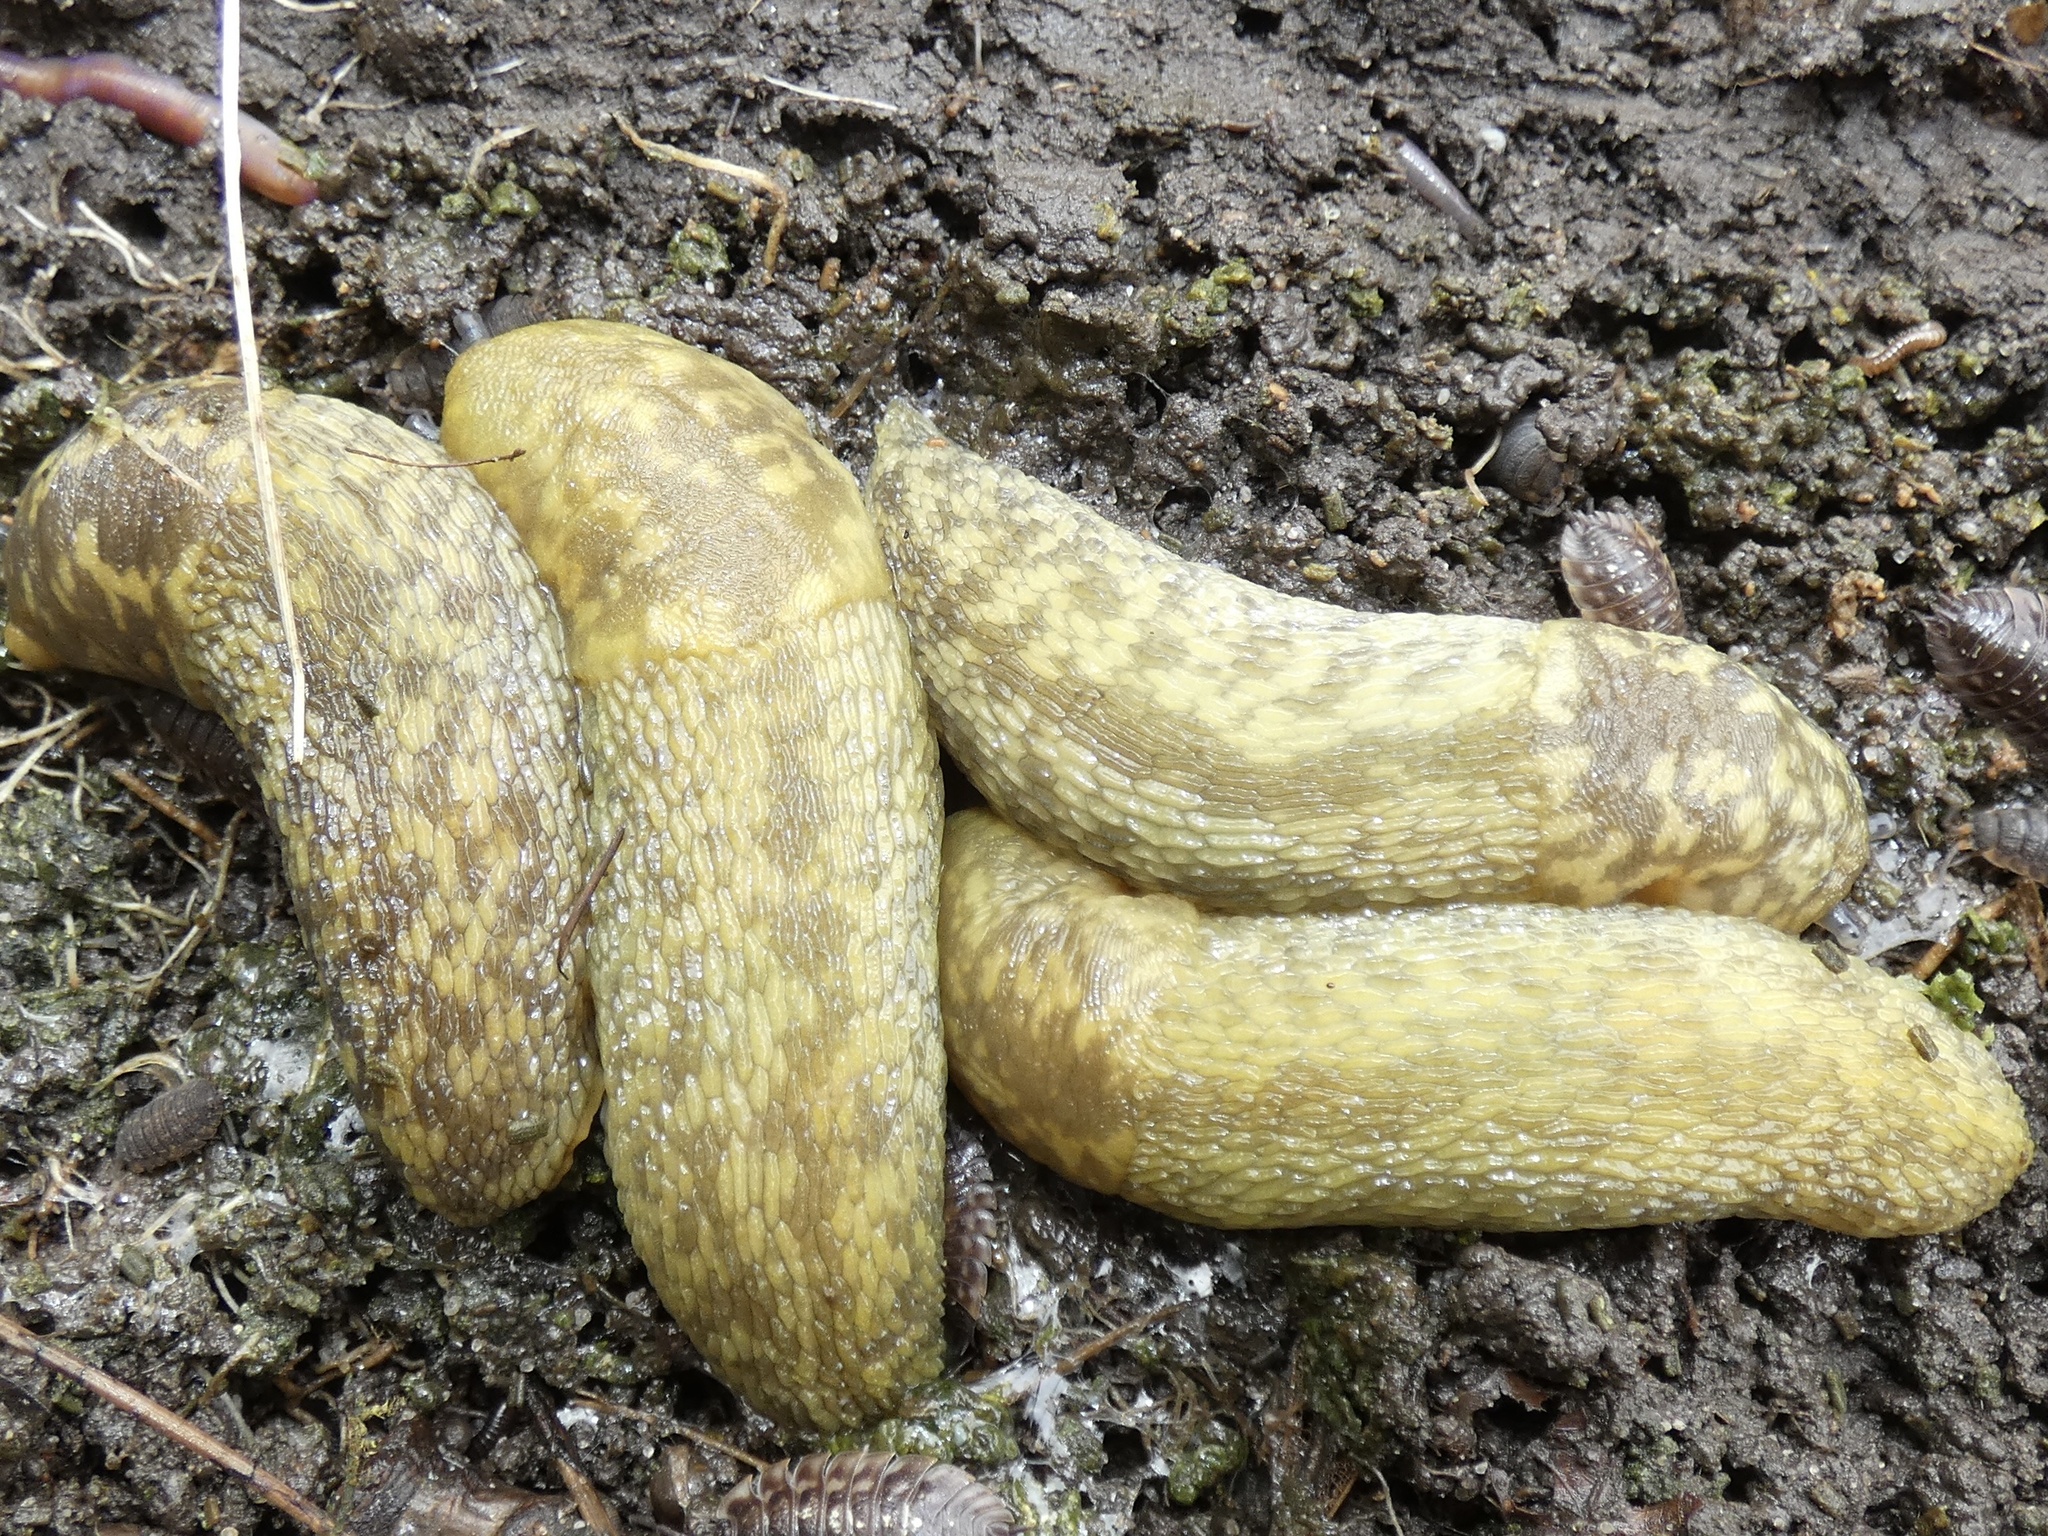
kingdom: Animalia
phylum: Mollusca
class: Gastropoda
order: Stylommatophora
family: Limacidae
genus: Limacus
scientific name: Limacus maculatus
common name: Irish yellow slug
